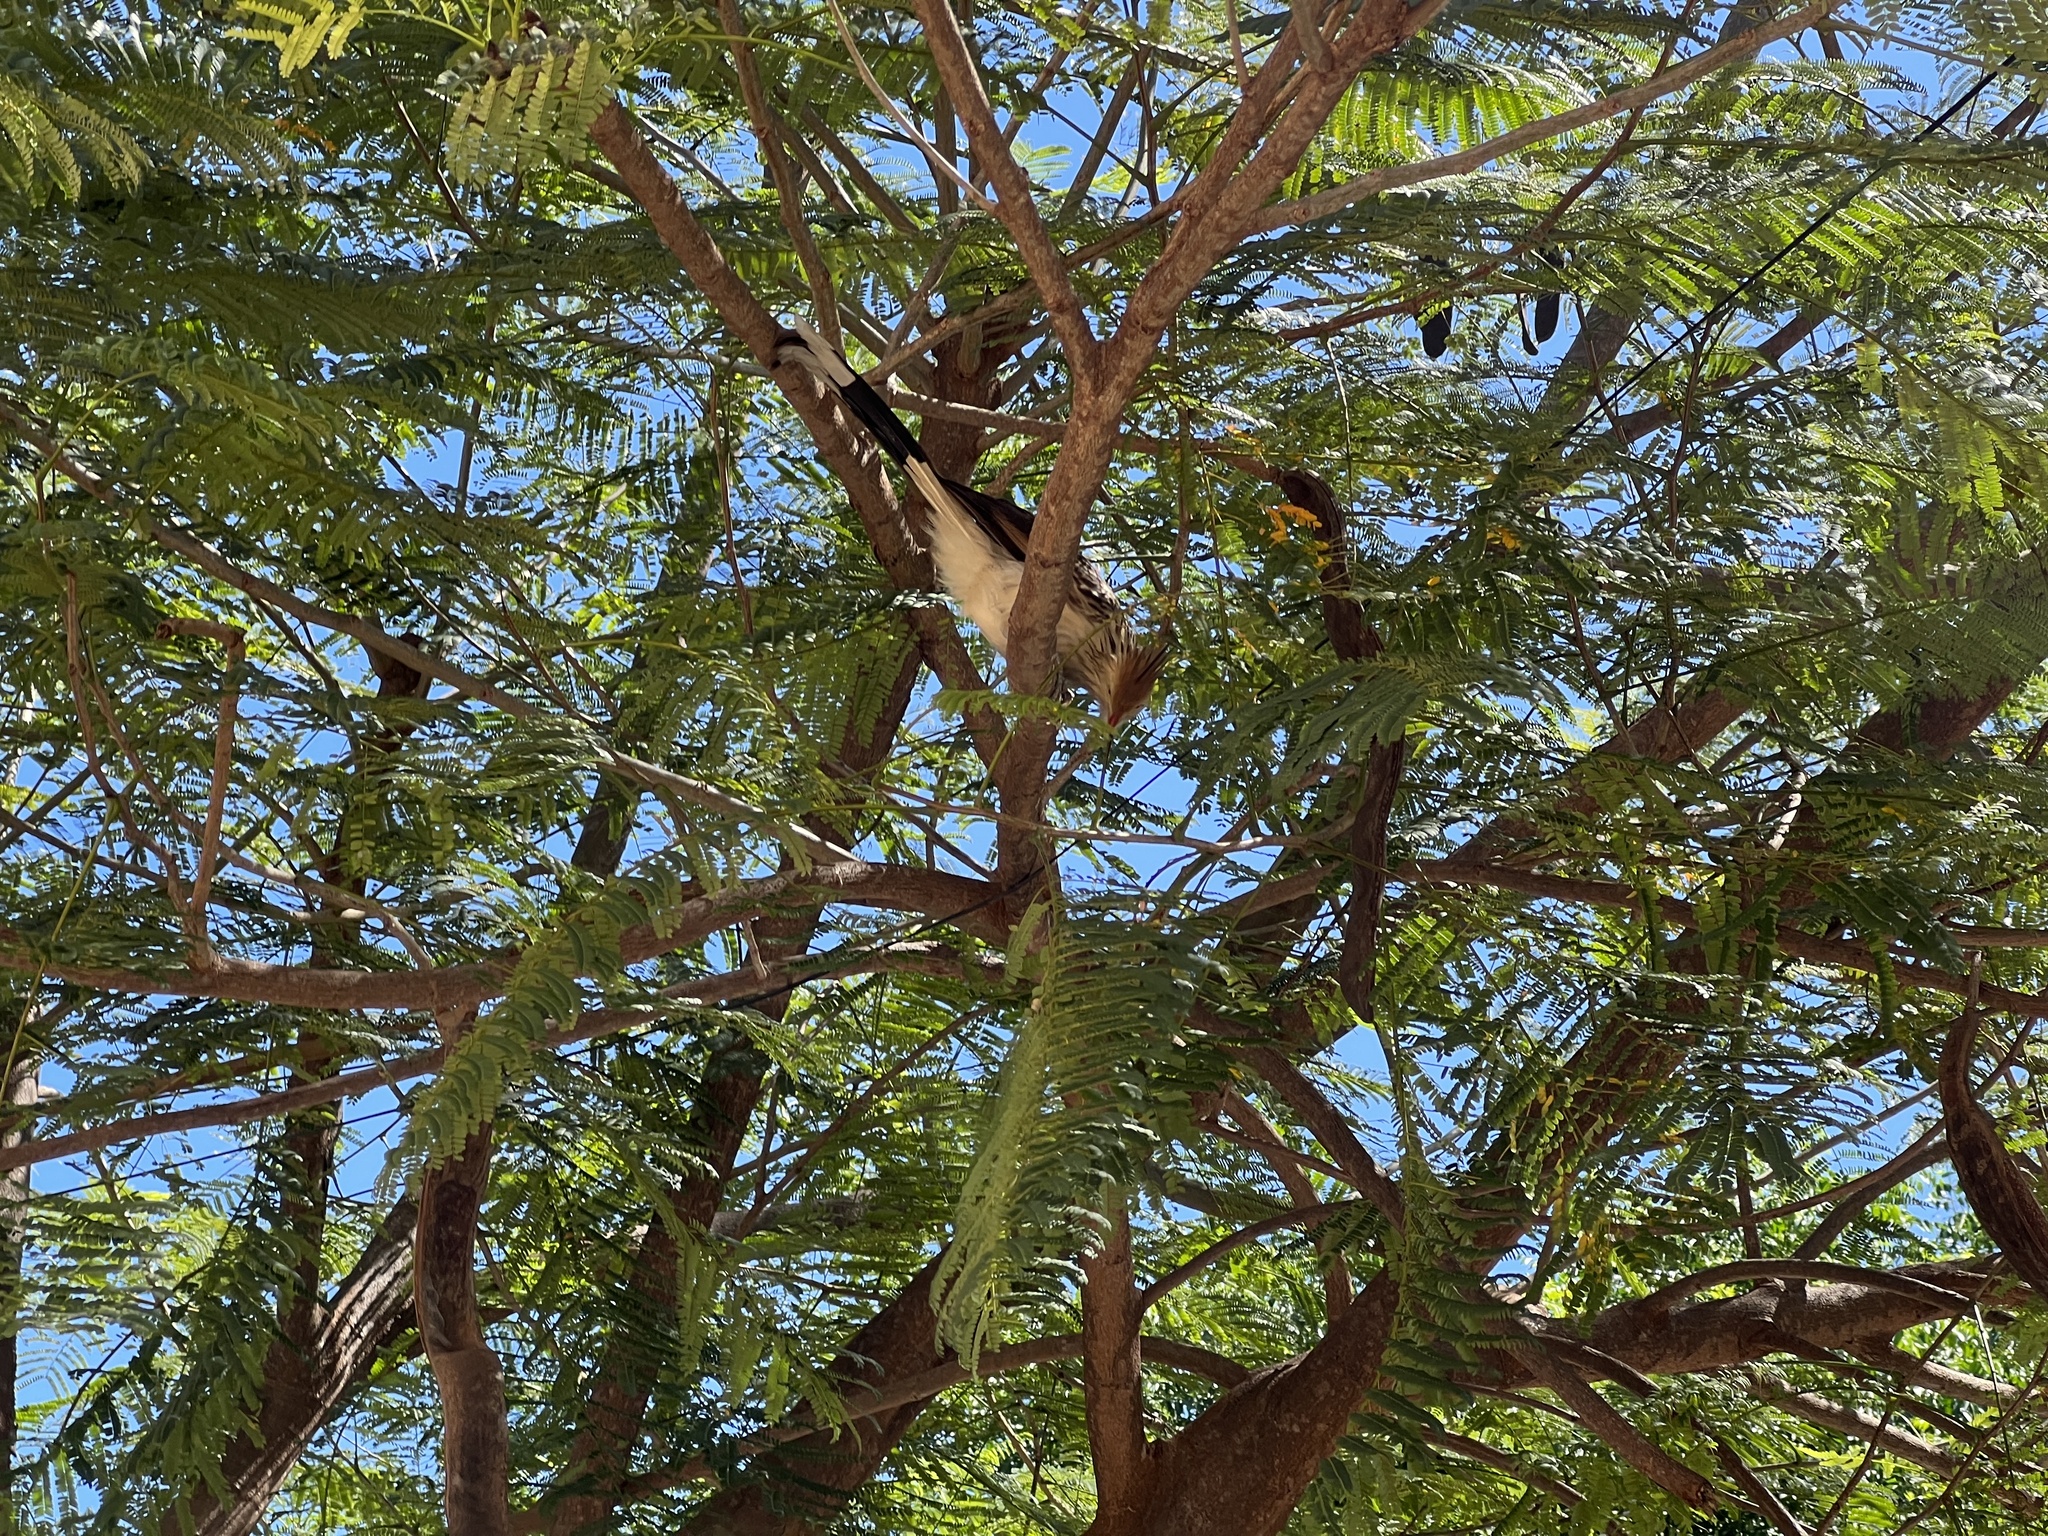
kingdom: Animalia
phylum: Chordata
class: Aves
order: Cuculiformes
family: Cuculidae
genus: Guira
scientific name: Guira guira
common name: Guira cuckoo
